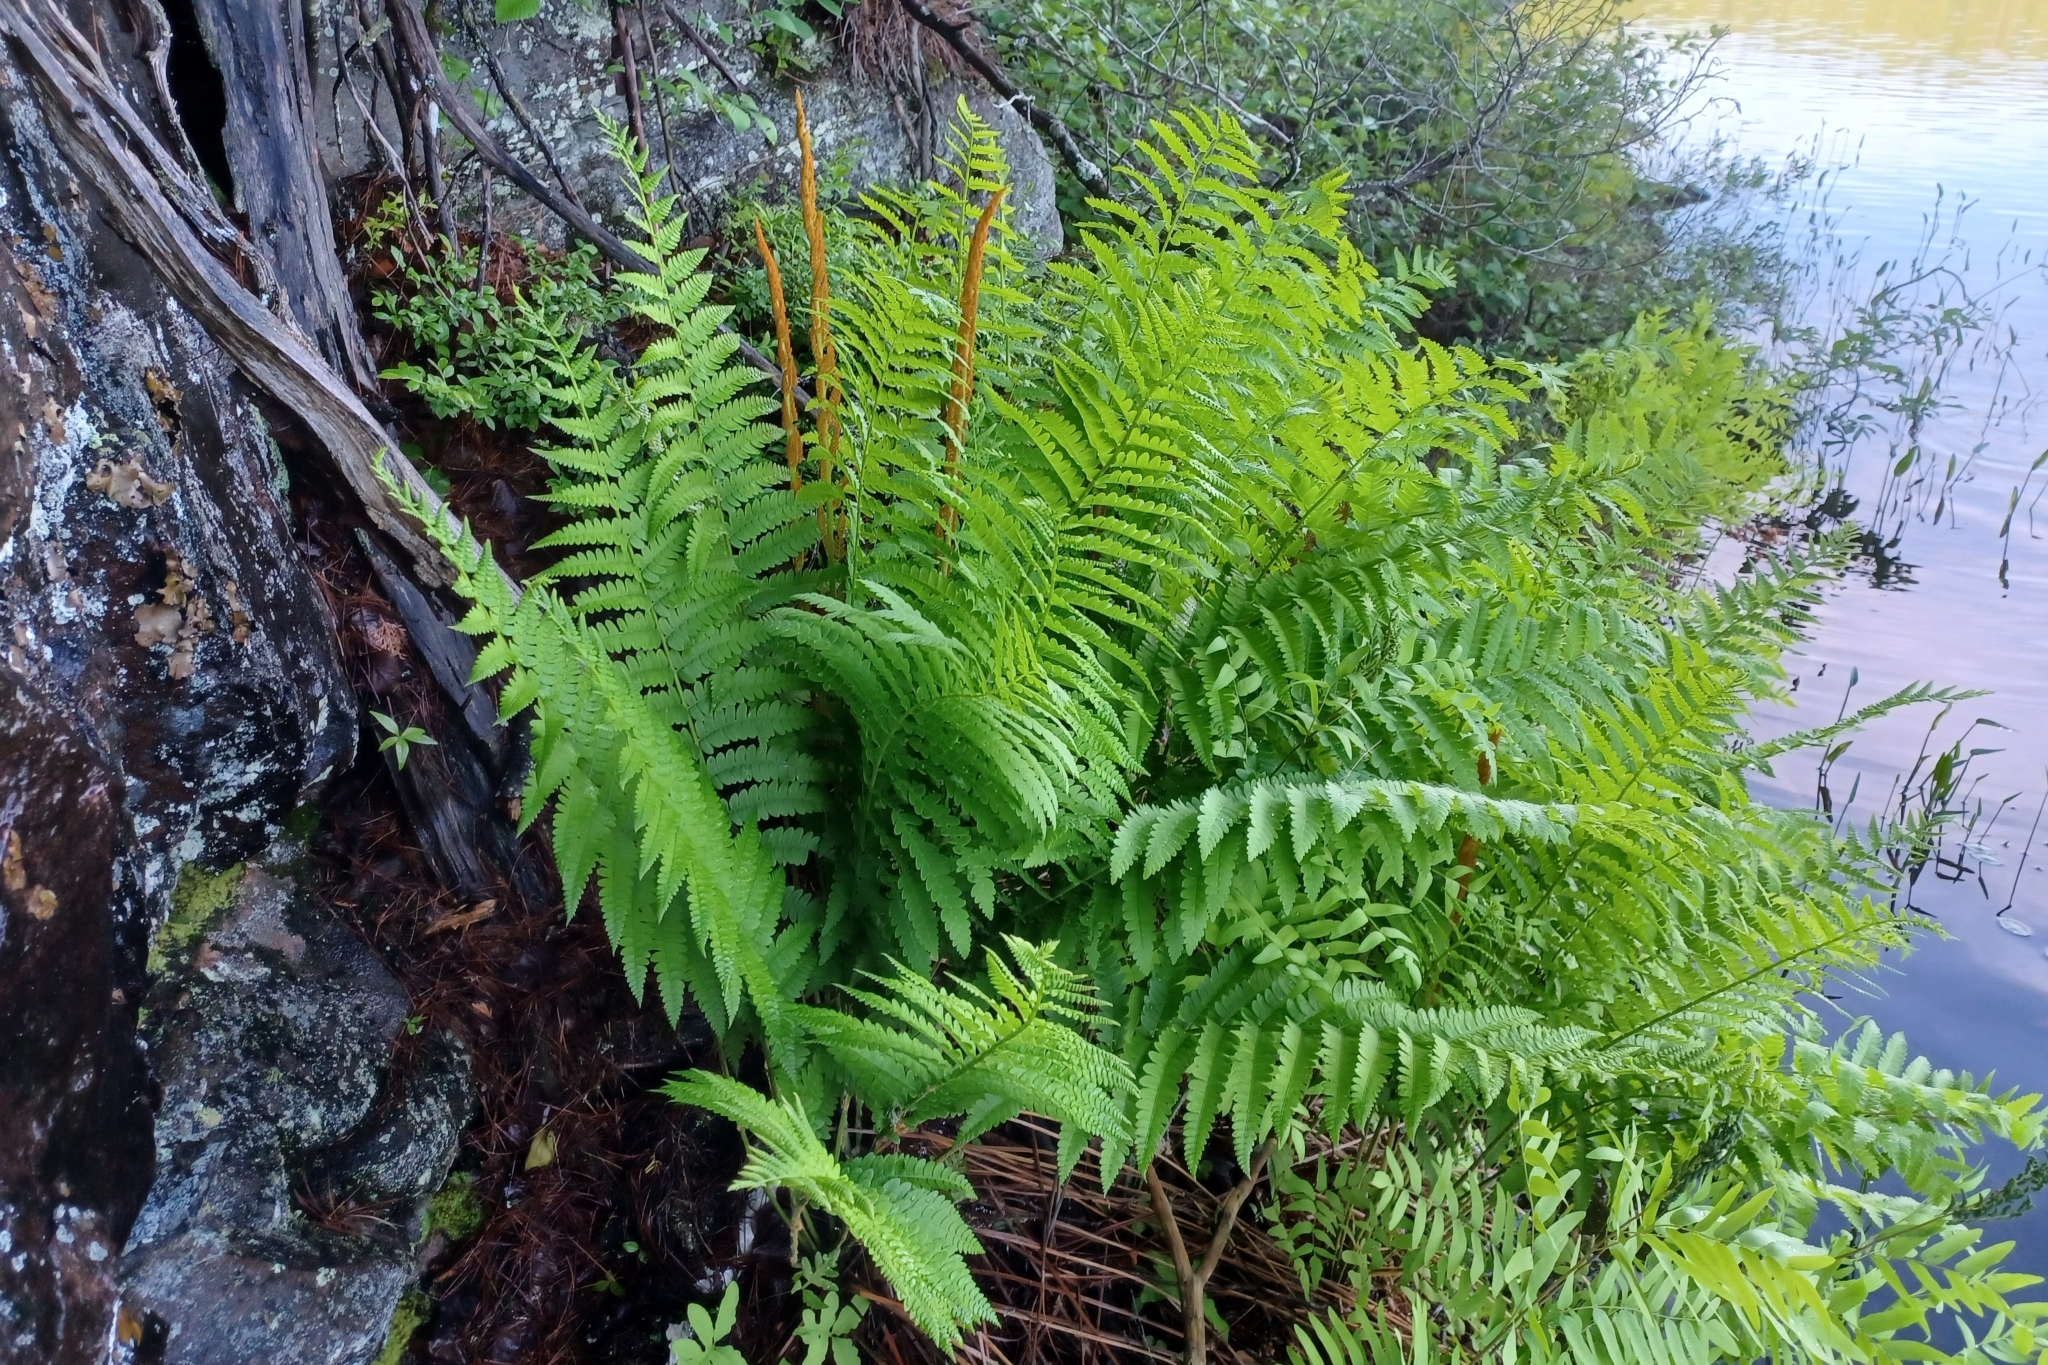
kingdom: Plantae
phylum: Tracheophyta
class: Polypodiopsida
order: Osmundales
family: Osmundaceae
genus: Osmundastrum
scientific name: Osmundastrum cinnamomeum
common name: Cinnamon fern
